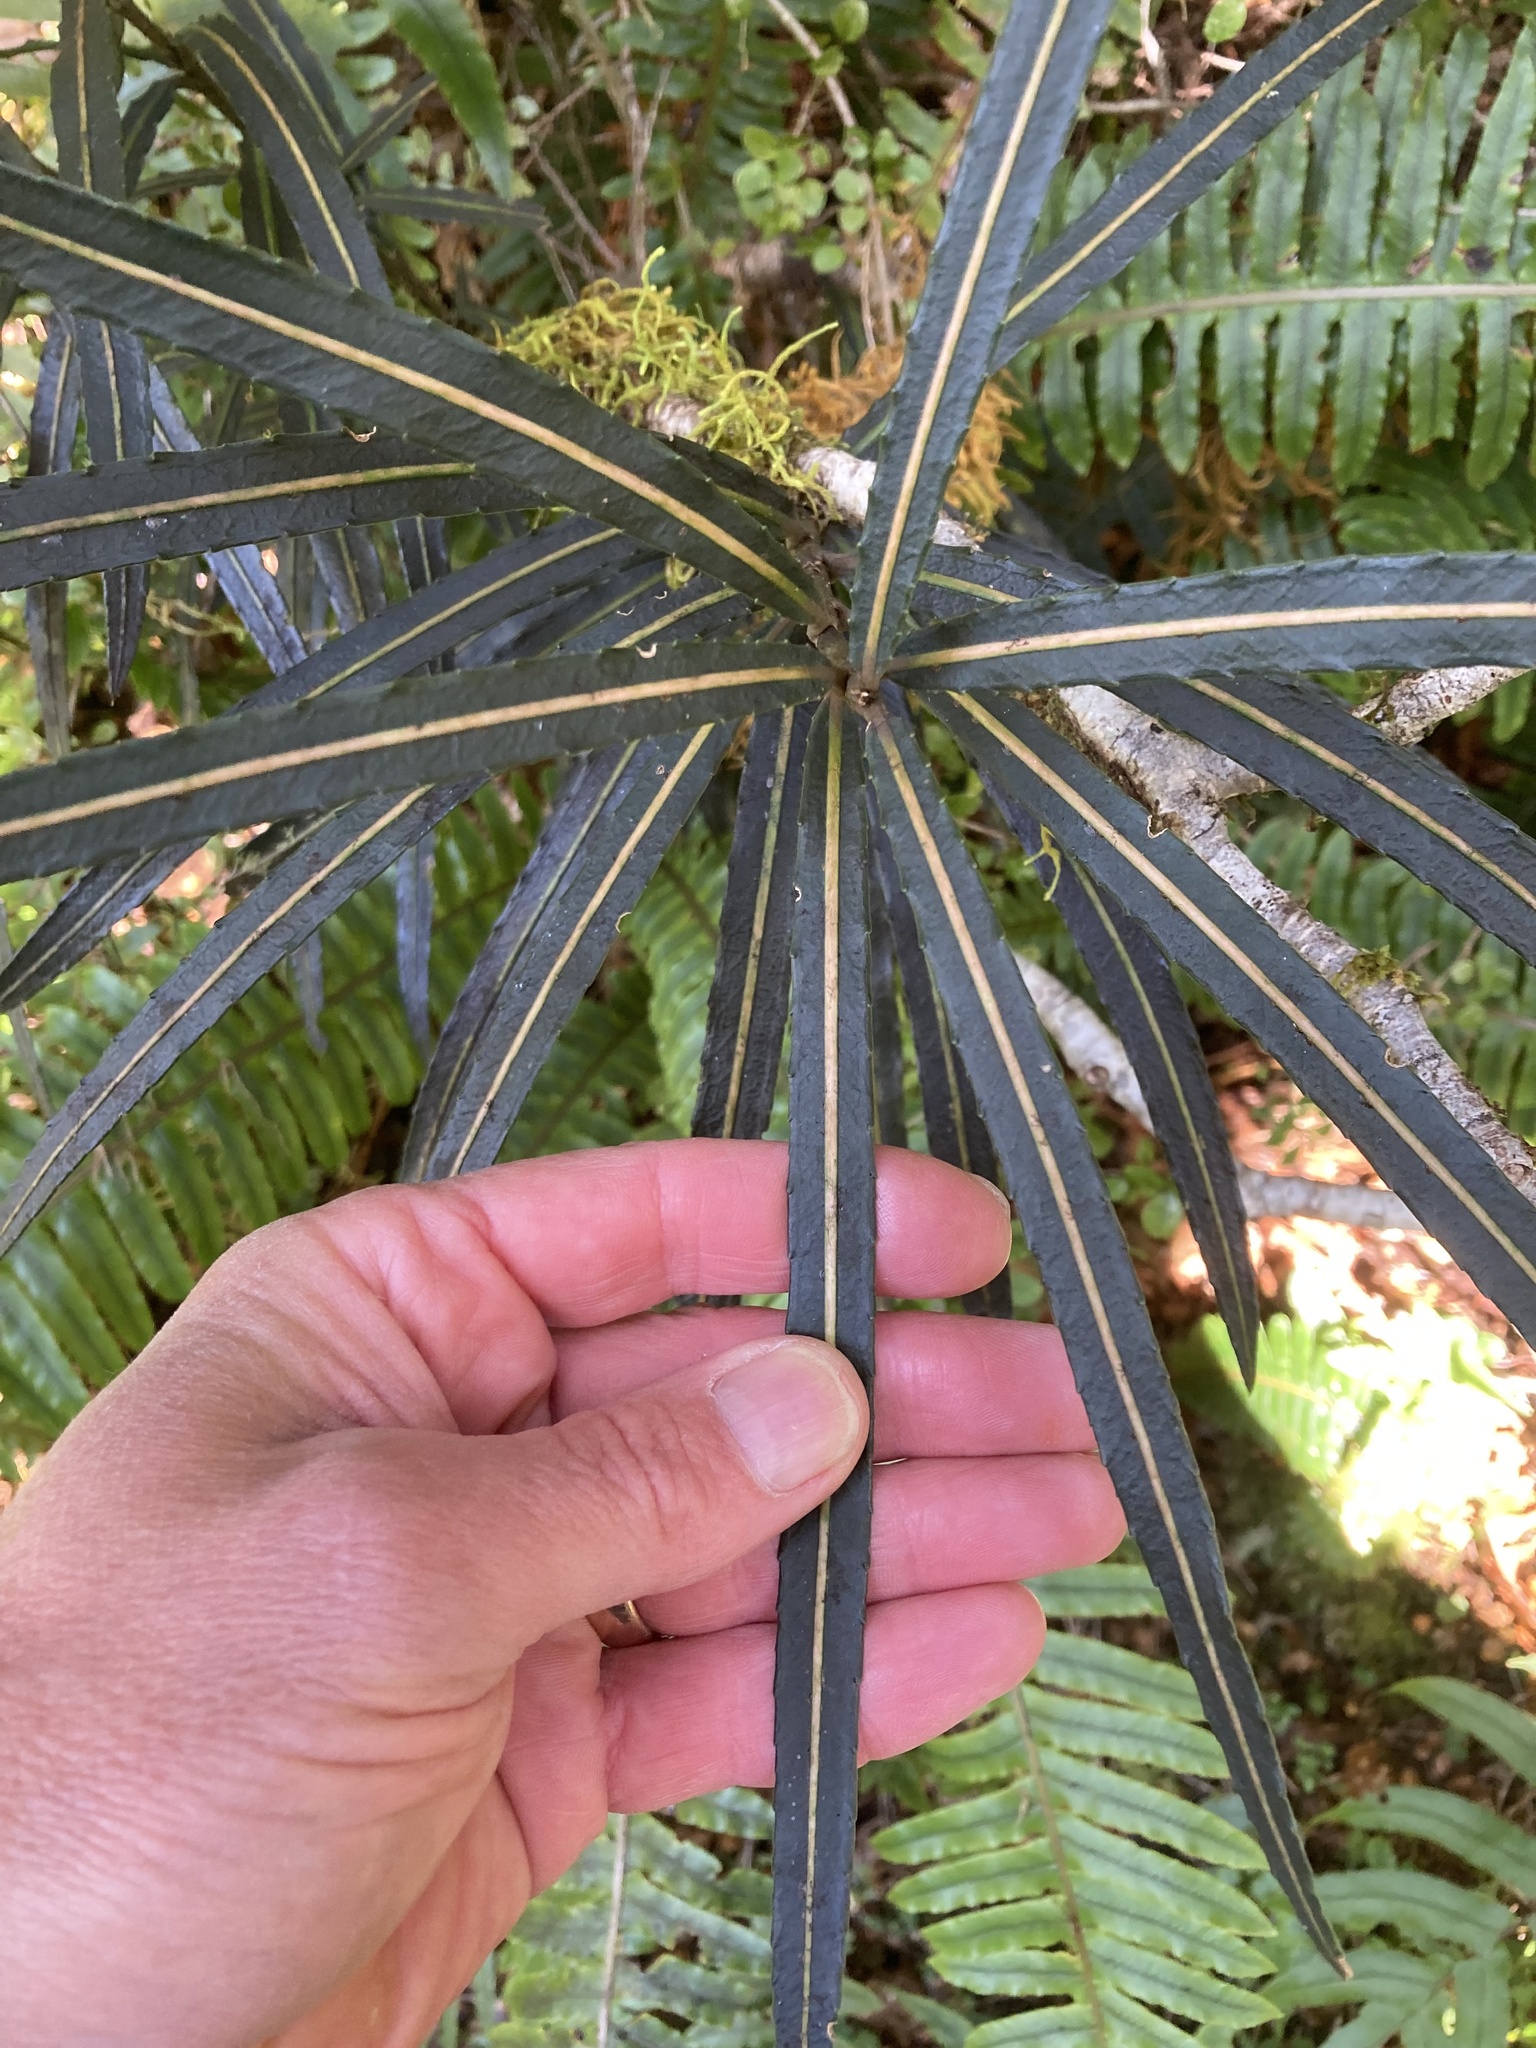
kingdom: Plantae
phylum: Tracheophyta
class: Magnoliopsida
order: Apiales
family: Araliaceae
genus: Pseudopanax
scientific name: Pseudopanax linearis
